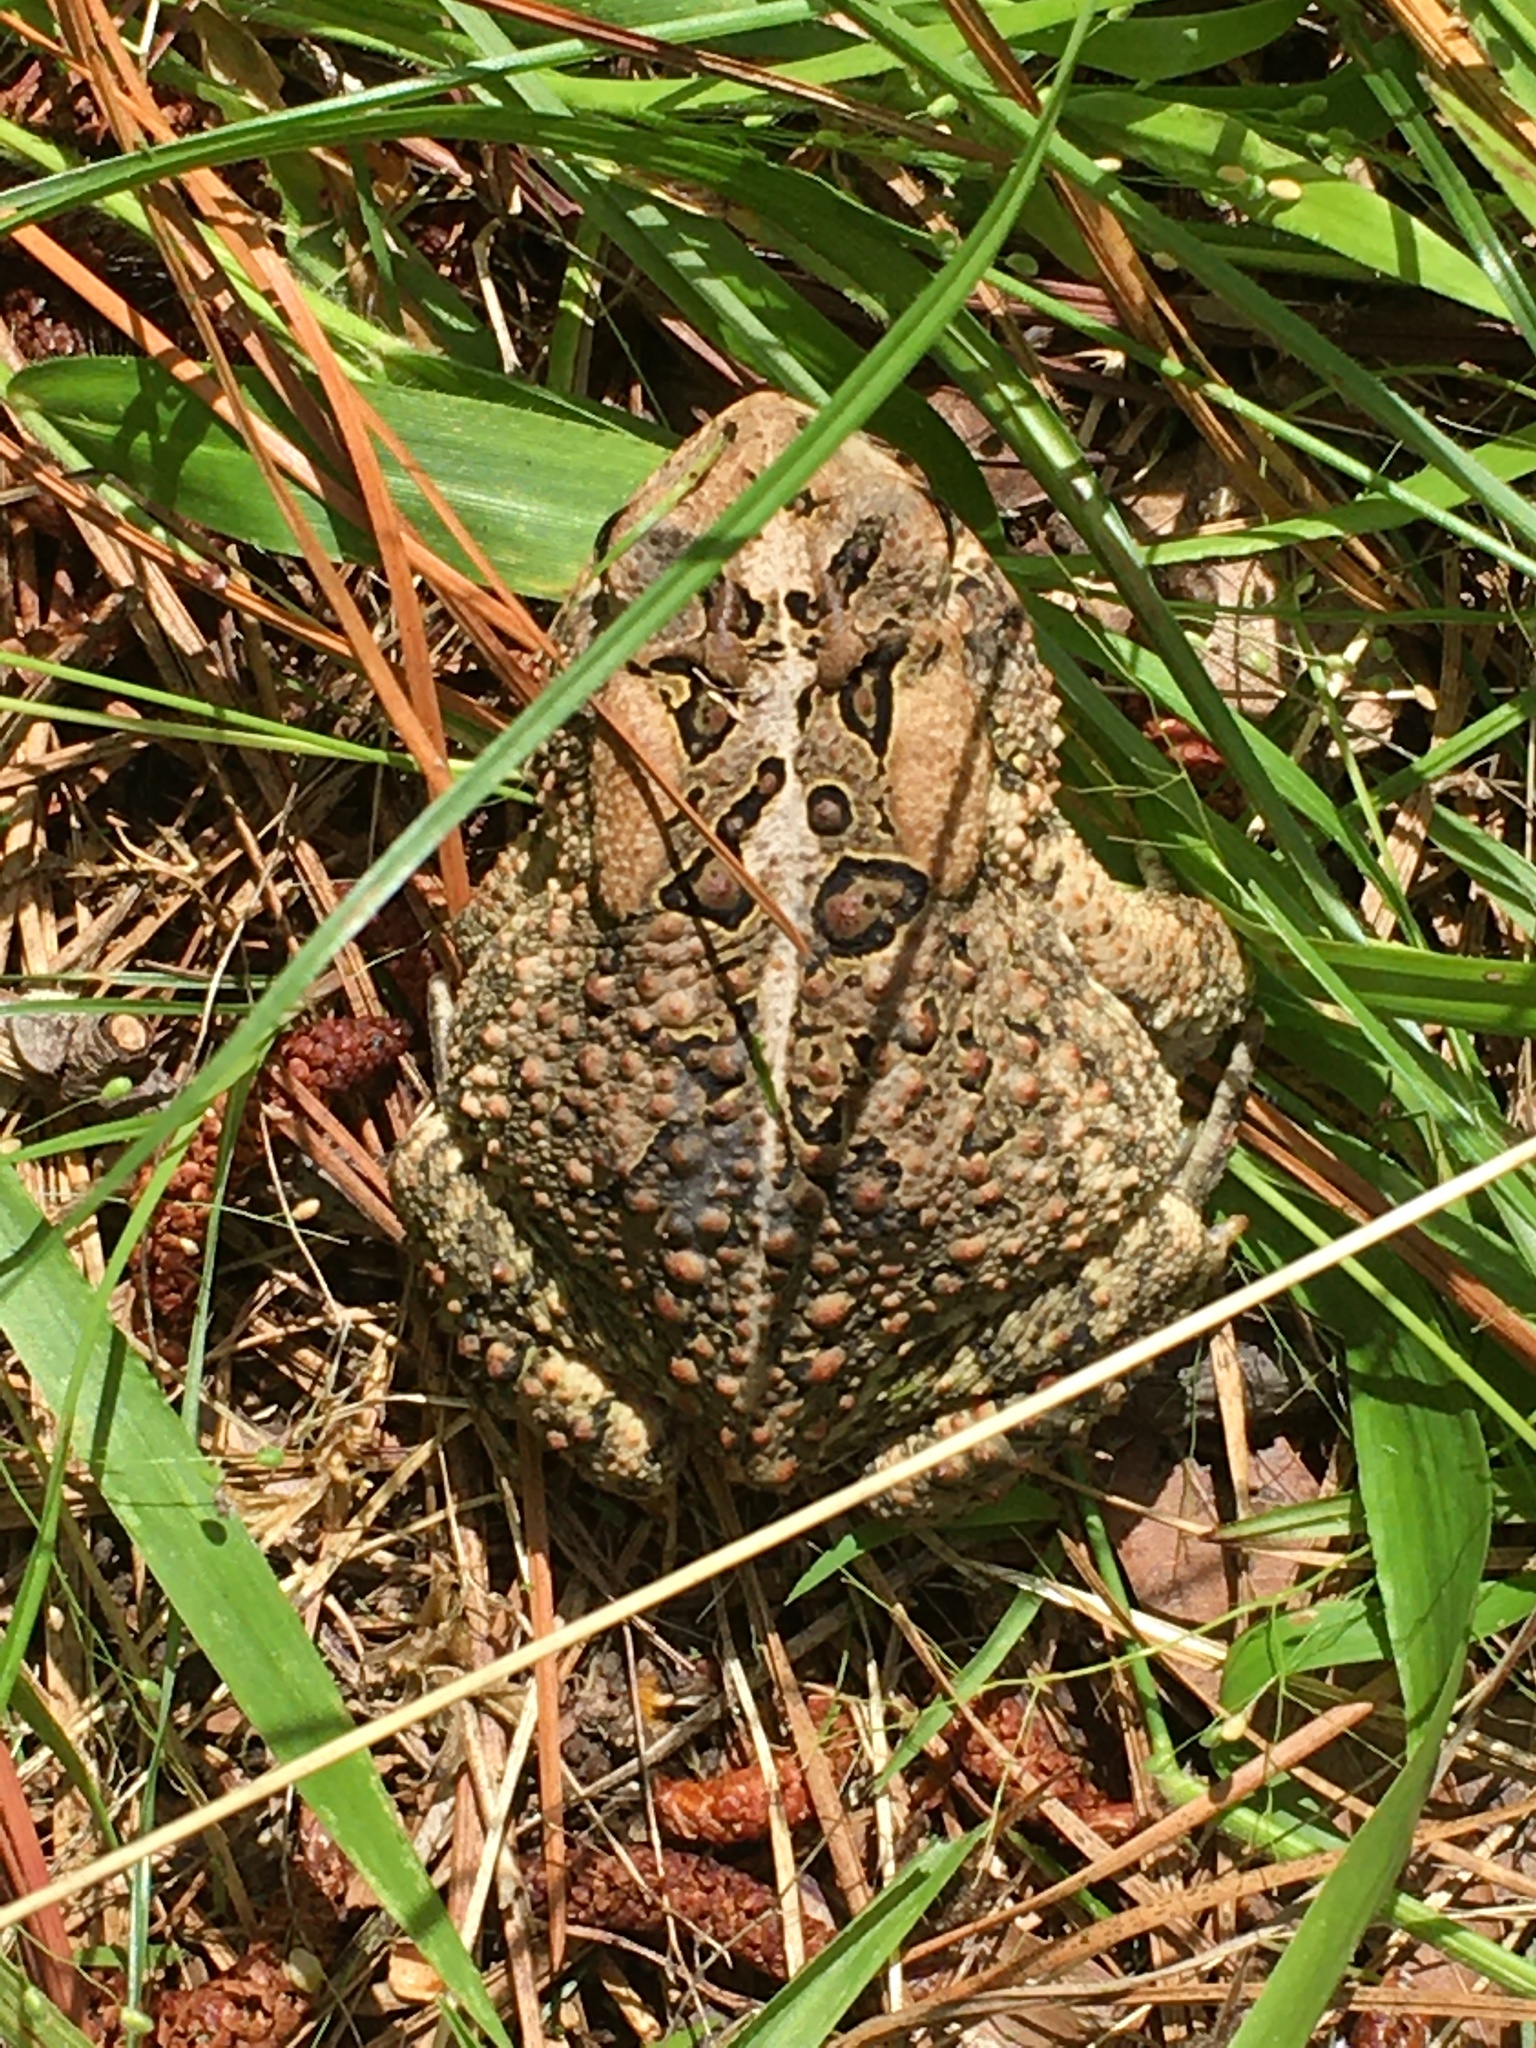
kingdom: Animalia
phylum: Chordata
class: Amphibia
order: Anura
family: Bufonidae
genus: Anaxyrus
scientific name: Anaxyrus terrestris
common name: Southern toad
